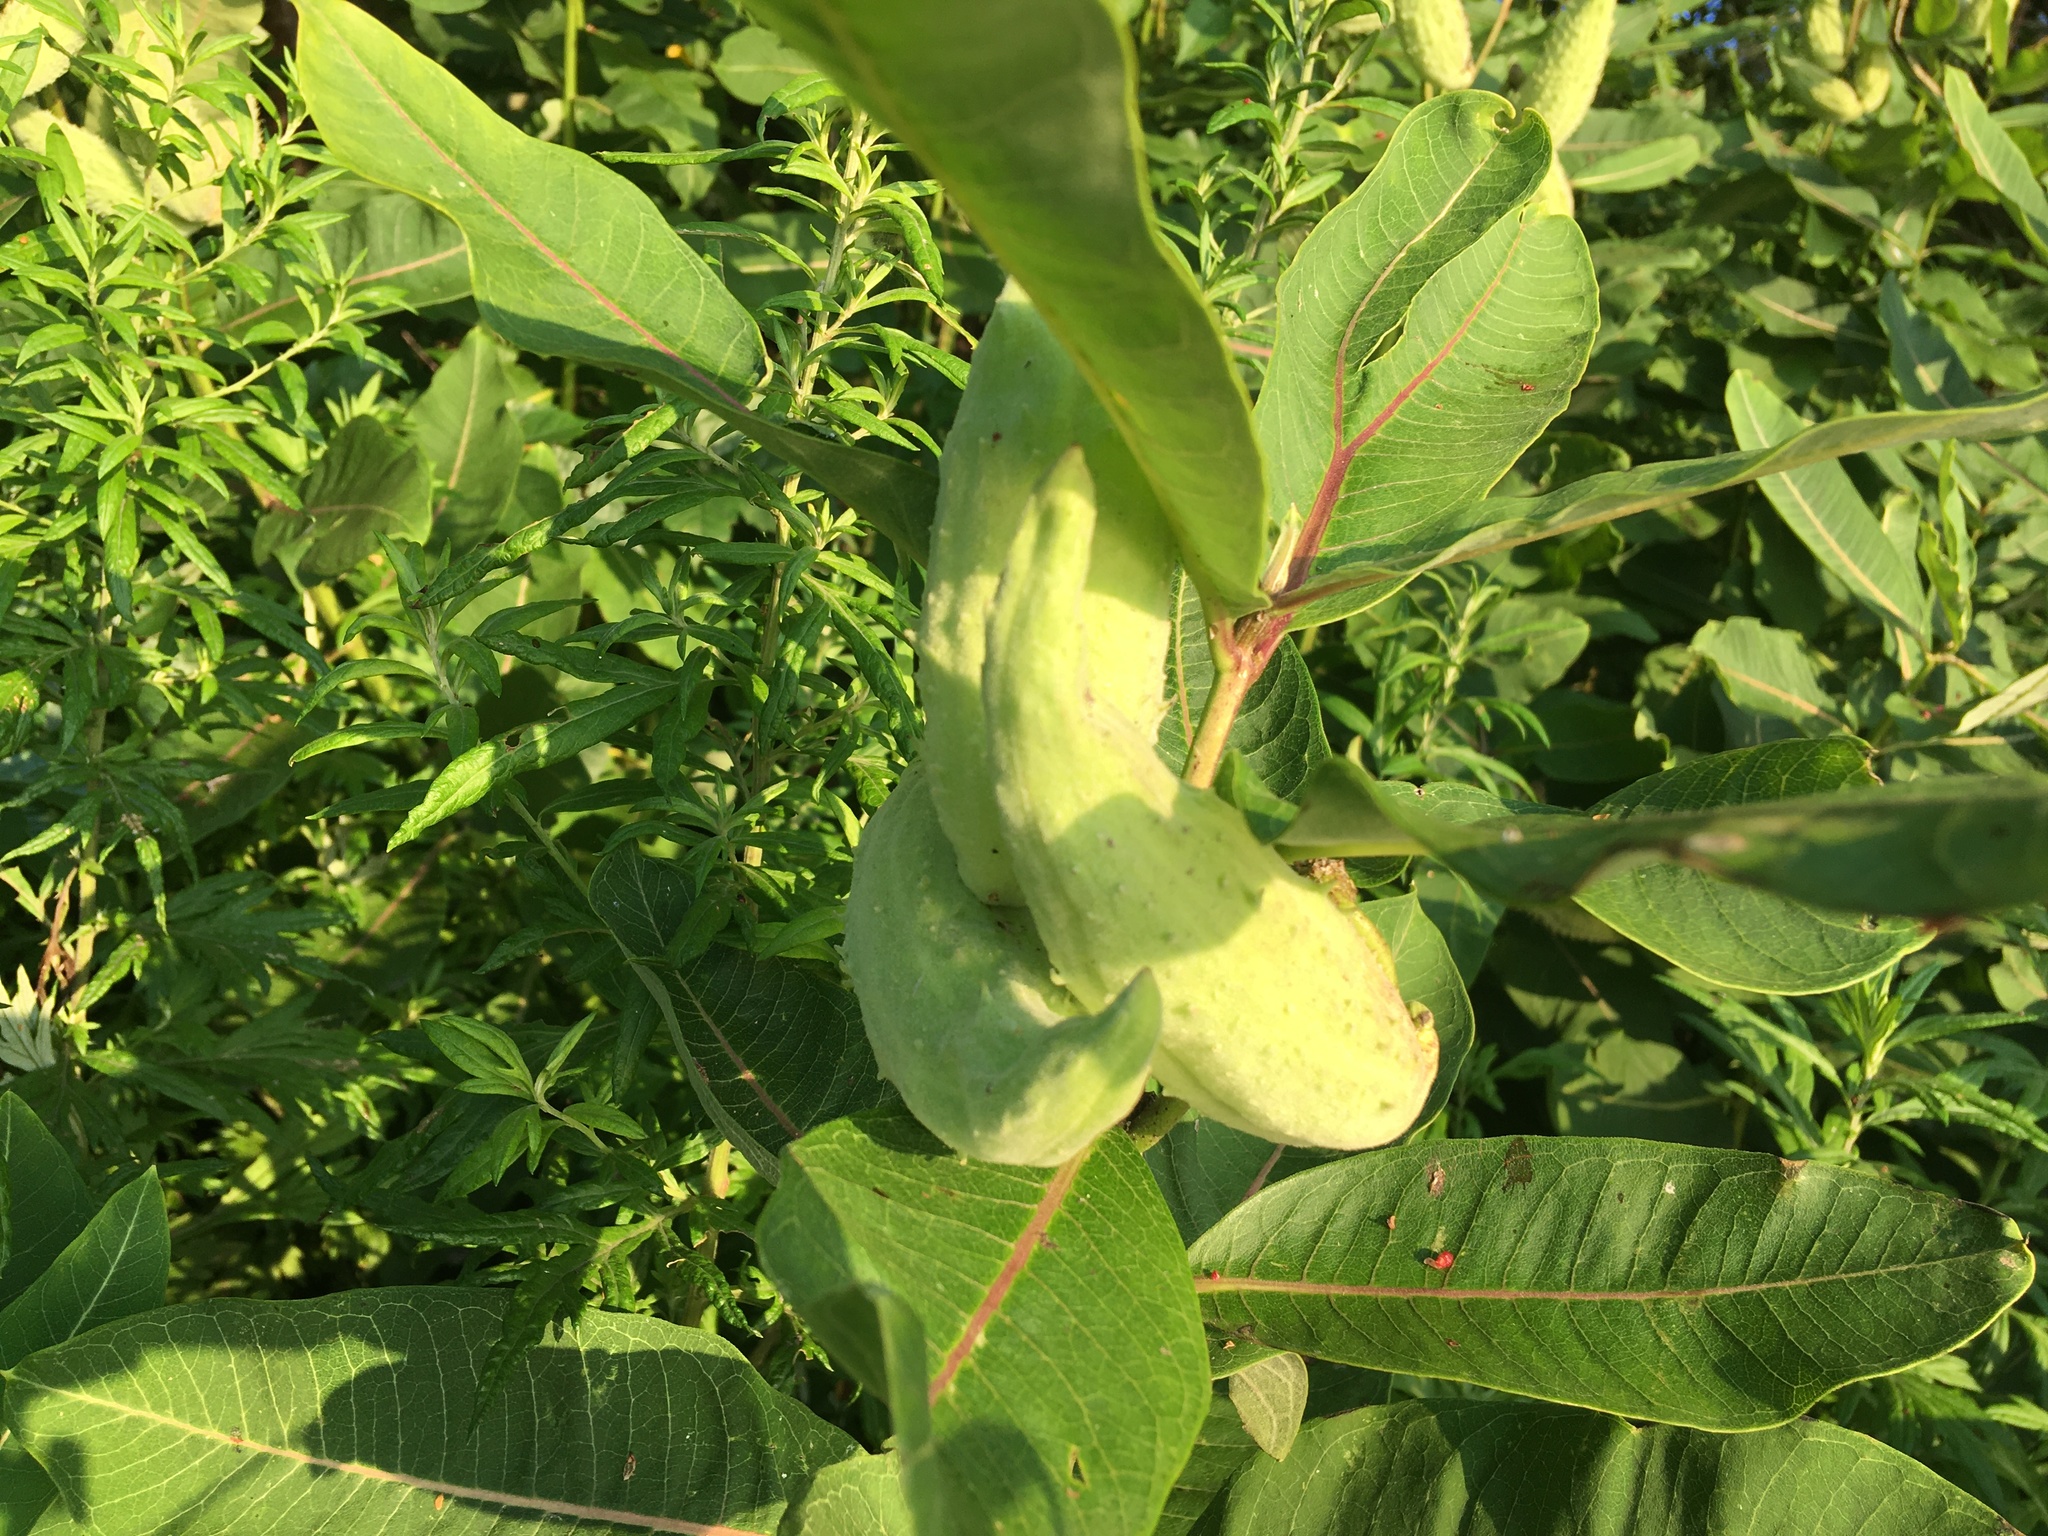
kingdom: Plantae
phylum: Tracheophyta
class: Magnoliopsida
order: Gentianales
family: Apocynaceae
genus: Asclepias
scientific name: Asclepias syriaca
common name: Common milkweed
